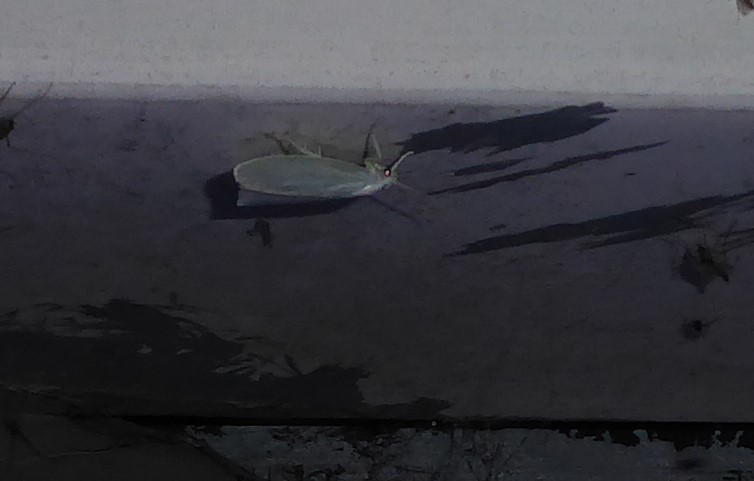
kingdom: Animalia
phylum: Arthropoda
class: Insecta
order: Lepidoptera
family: Oecophoridae
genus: Nymphostola
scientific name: Nymphostola galactina
